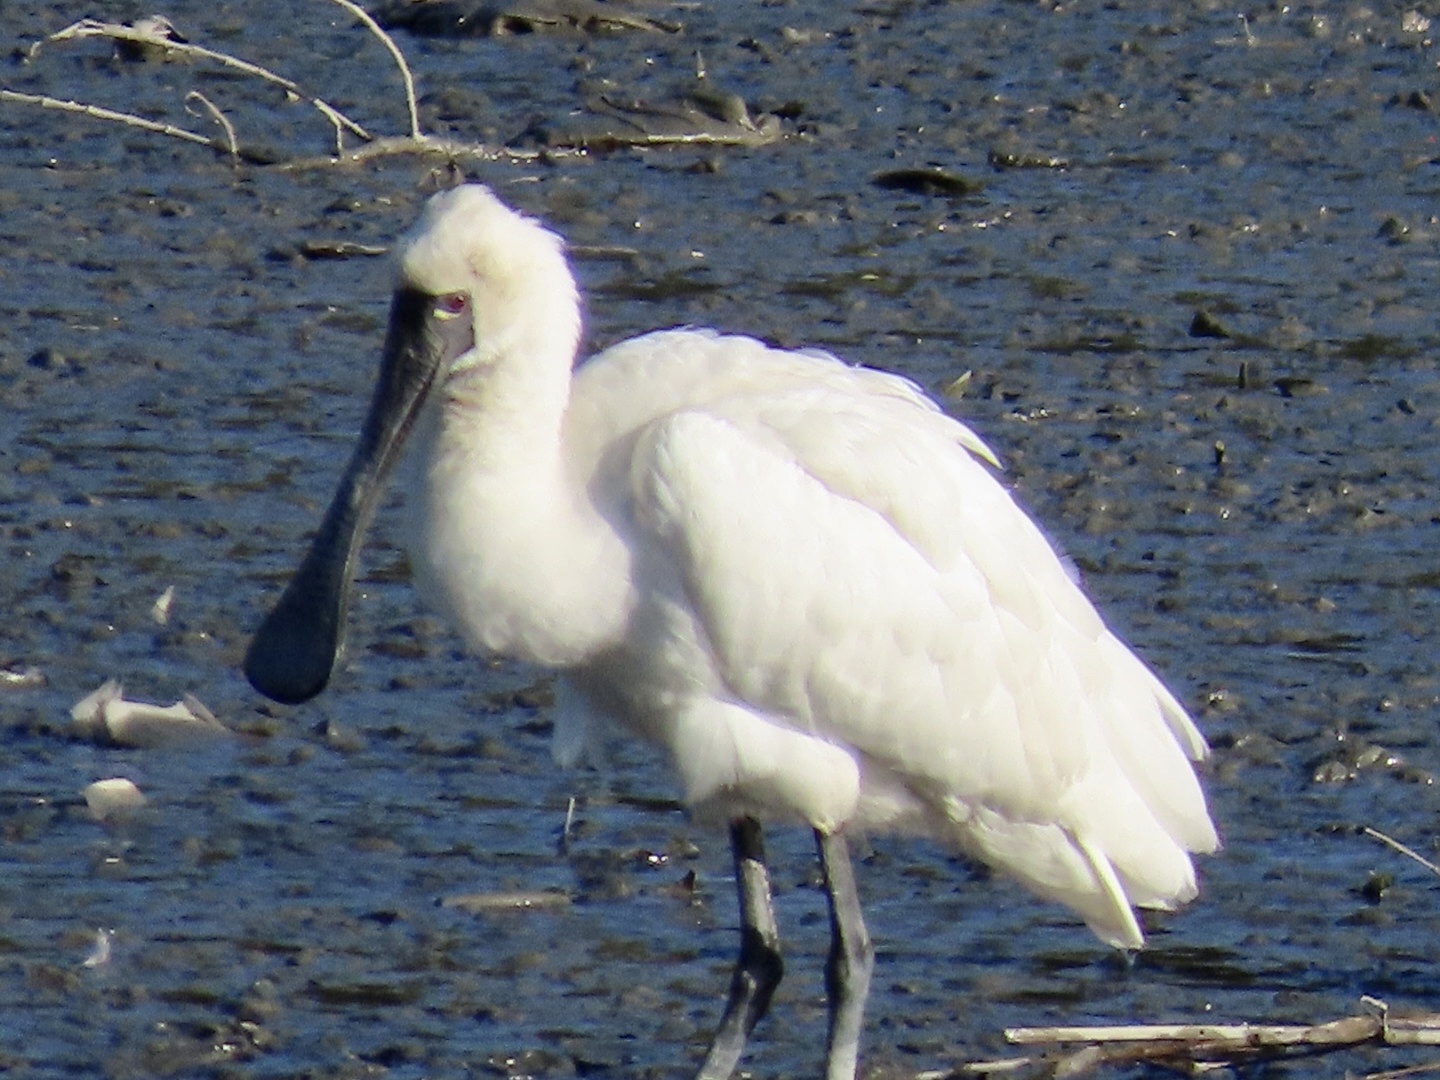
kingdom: Animalia
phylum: Chordata
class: Aves
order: Pelecaniformes
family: Threskiornithidae
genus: Platalea
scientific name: Platalea minor
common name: Black-faced spoonbill
